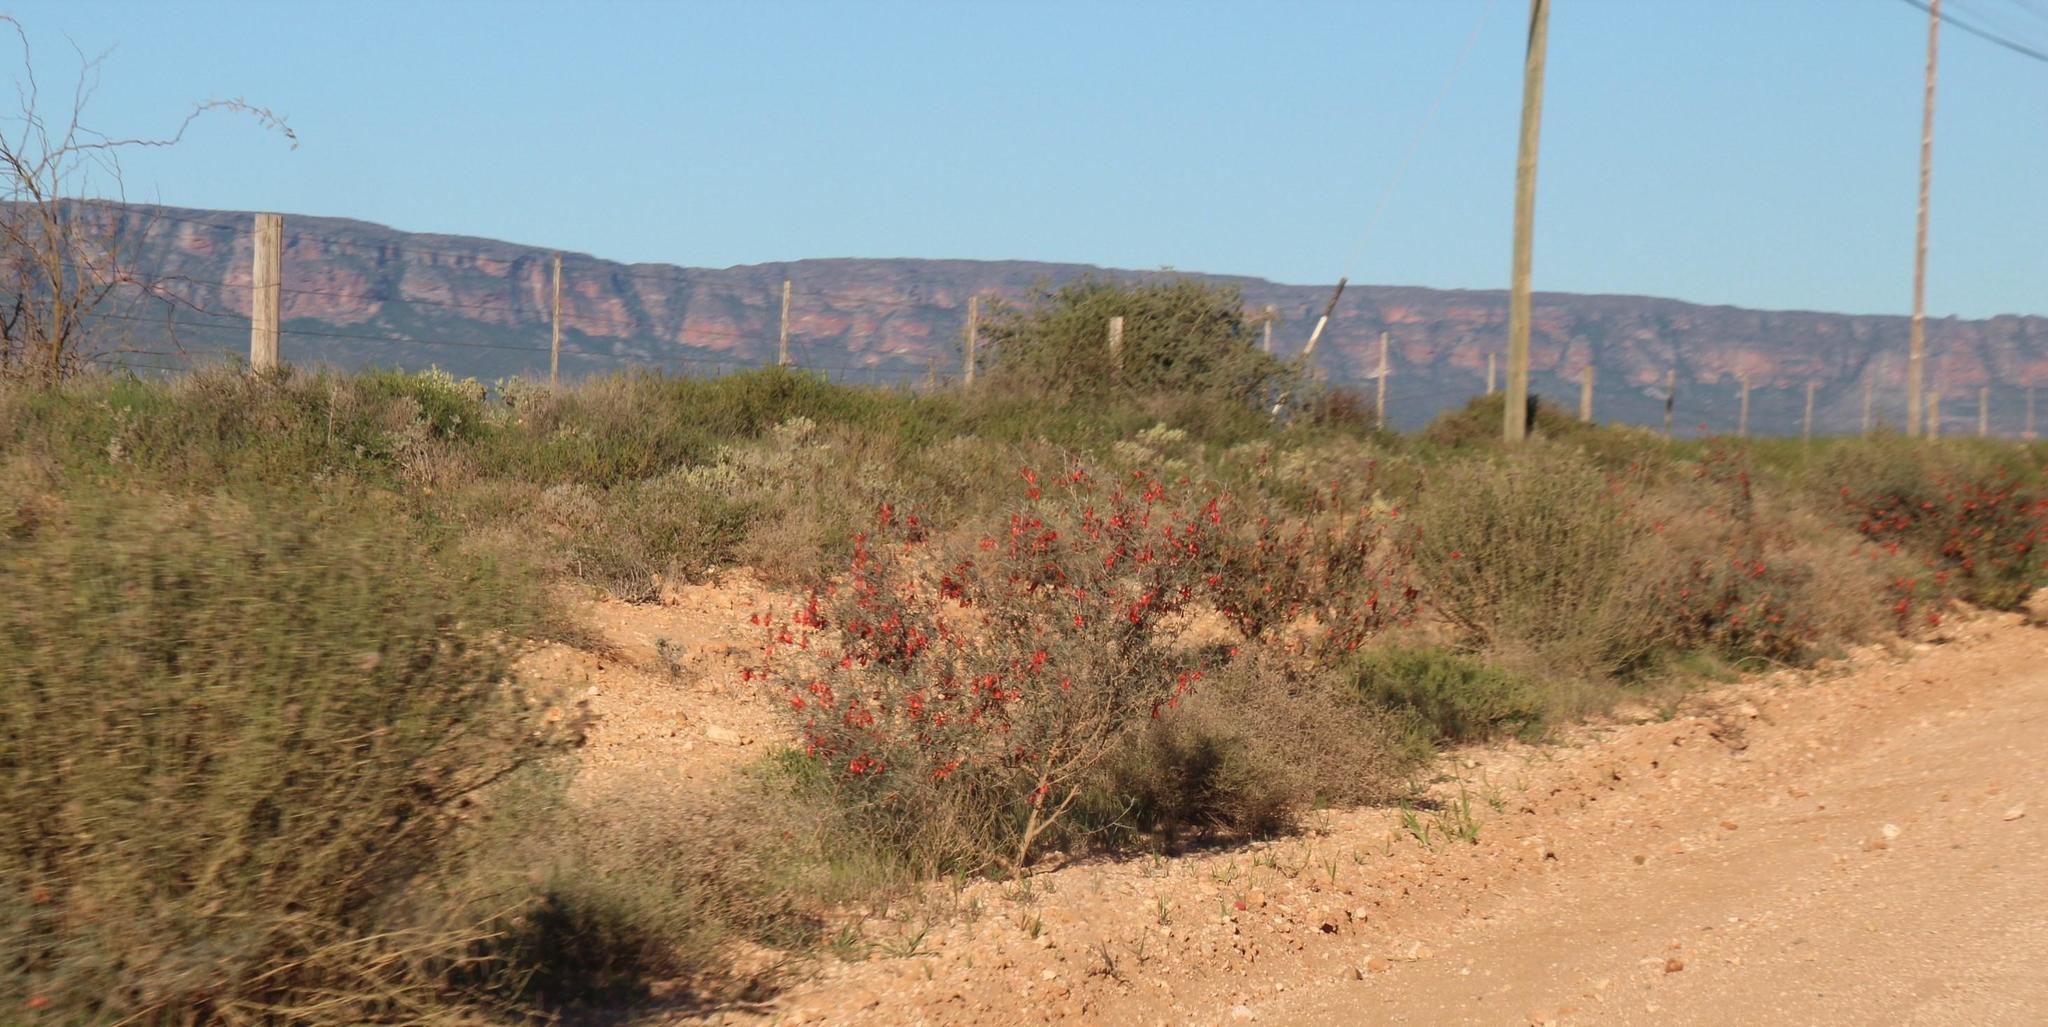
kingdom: Plantae
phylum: Tracheophyta
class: Magnoliopsida
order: Fabales
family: Fabaceae
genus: Lessertia
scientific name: Lessertia frutescens
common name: Balloon-pea
